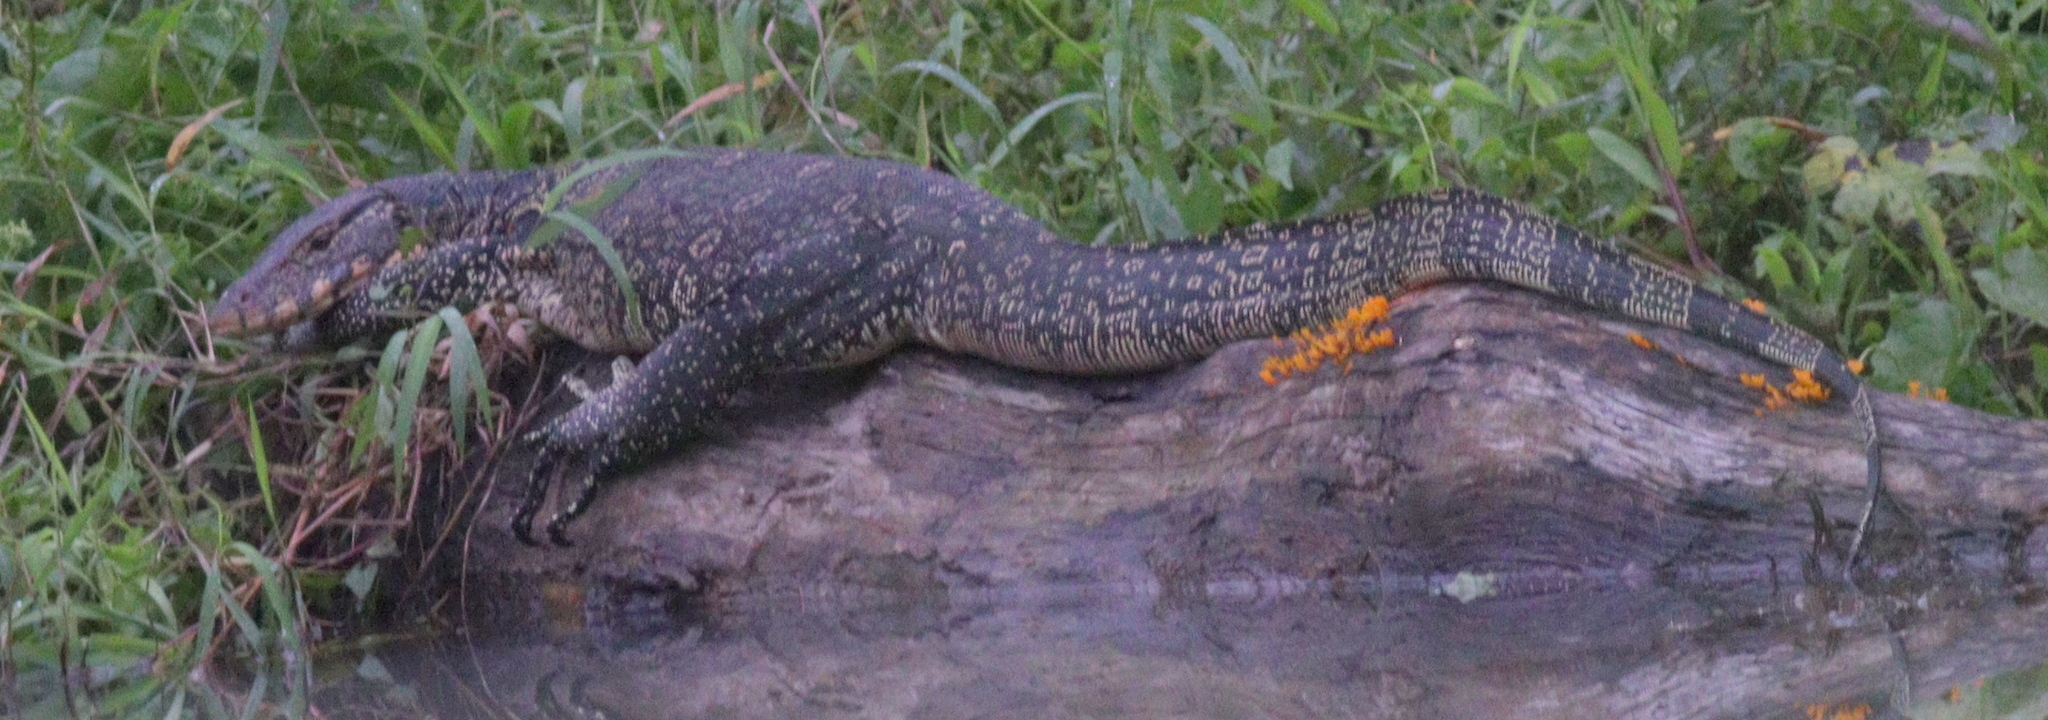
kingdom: Animalia
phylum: Chordata
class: Squamata
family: Varanidae
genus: Varanus
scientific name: Varanus salvator
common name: Common water monitor
